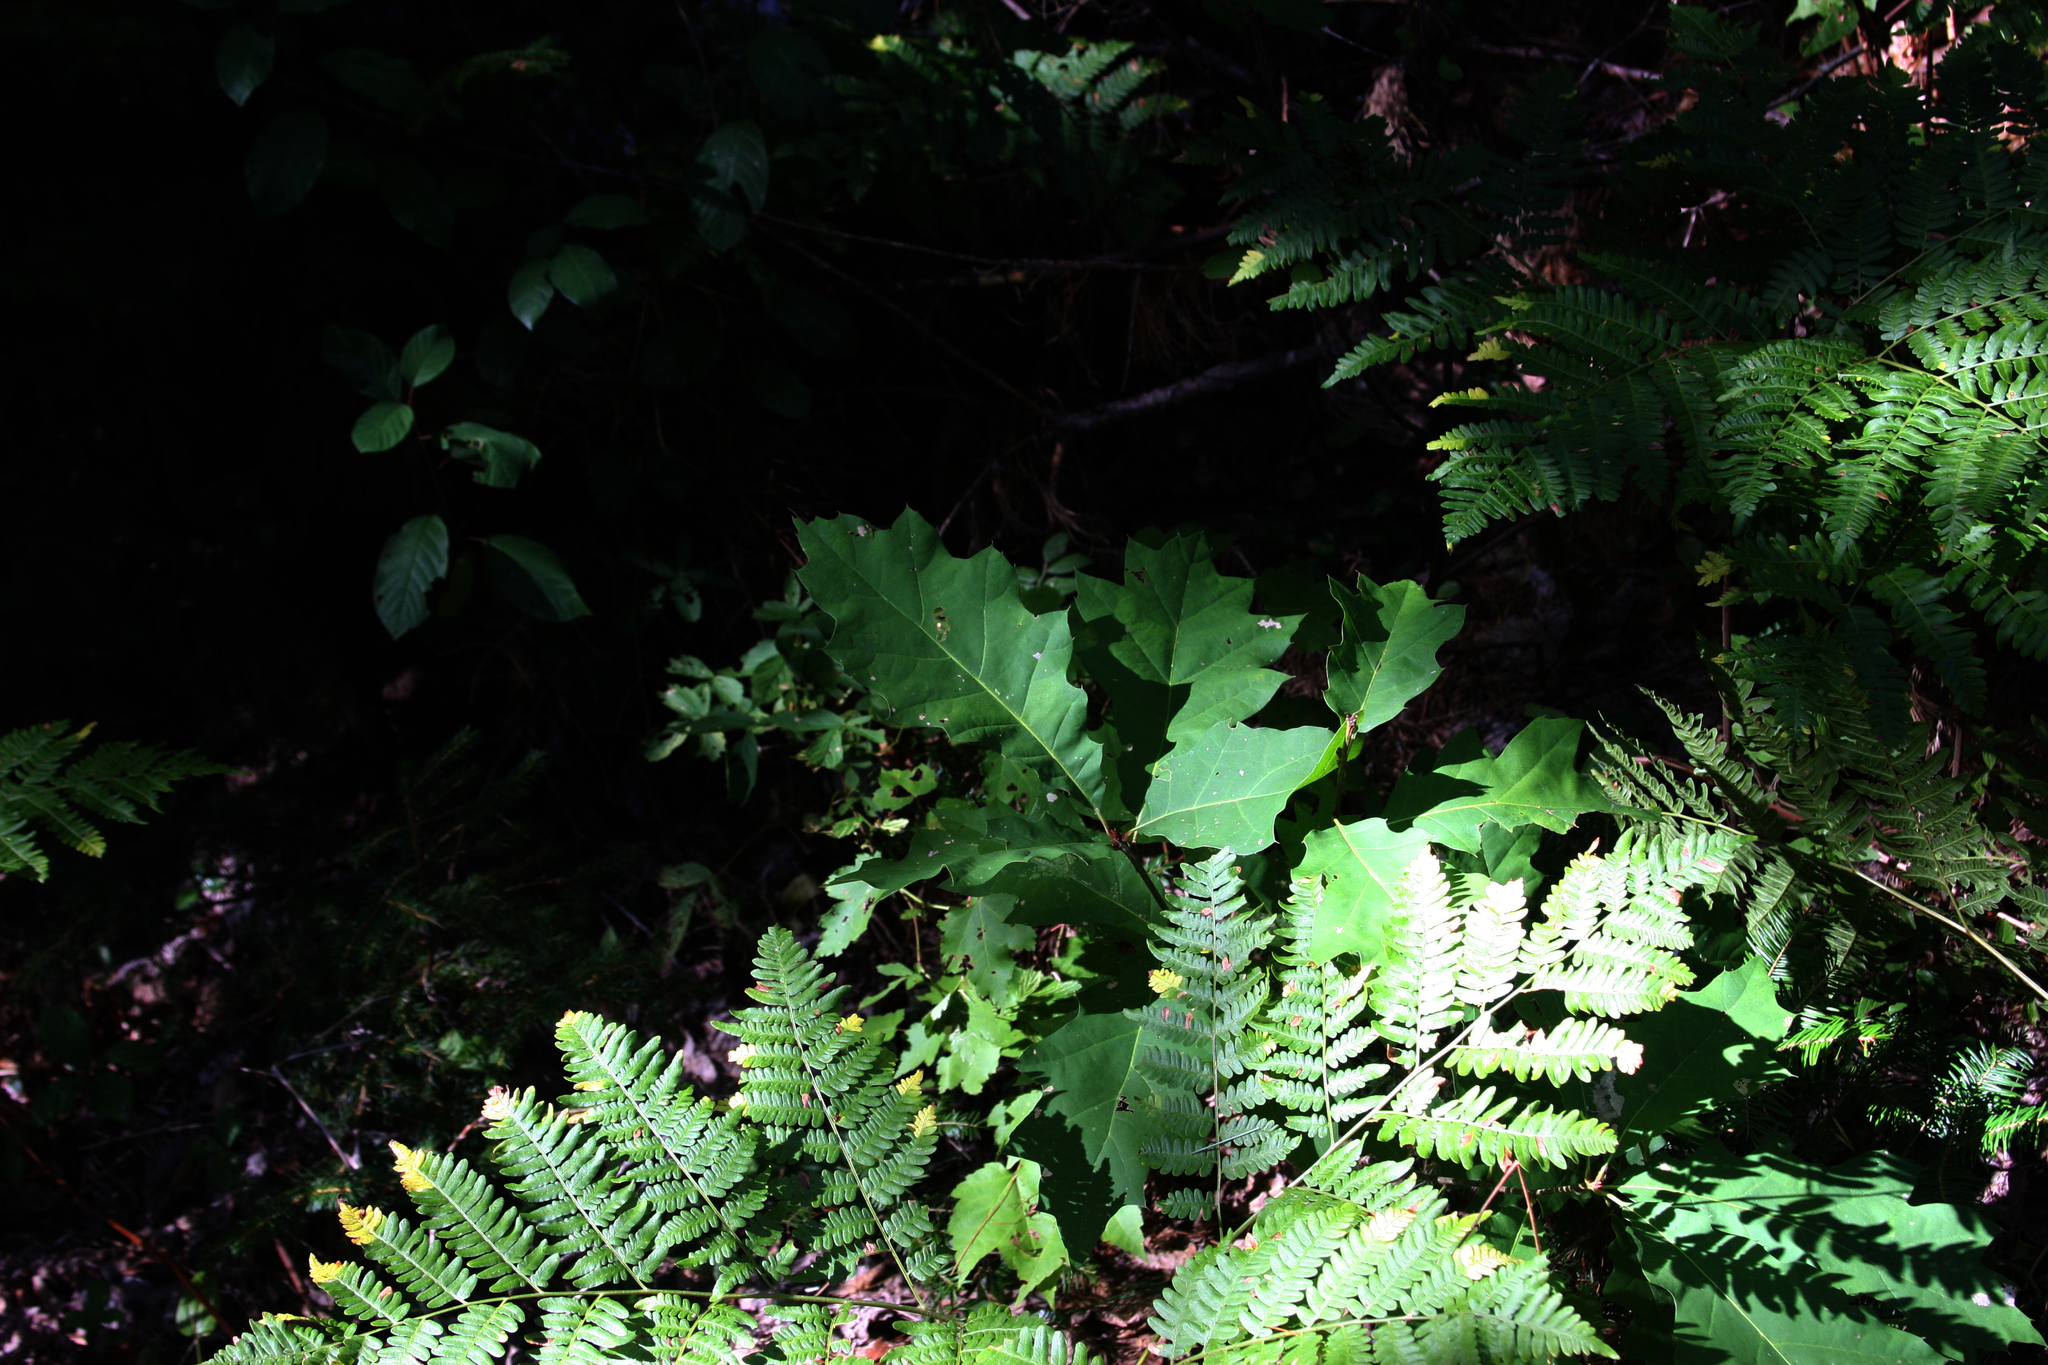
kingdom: Plantae
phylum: Tracheophyta
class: Magnoliopsida
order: Fagales
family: Fagaceae
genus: Quercus
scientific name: Quercus rubra
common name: Red oak
